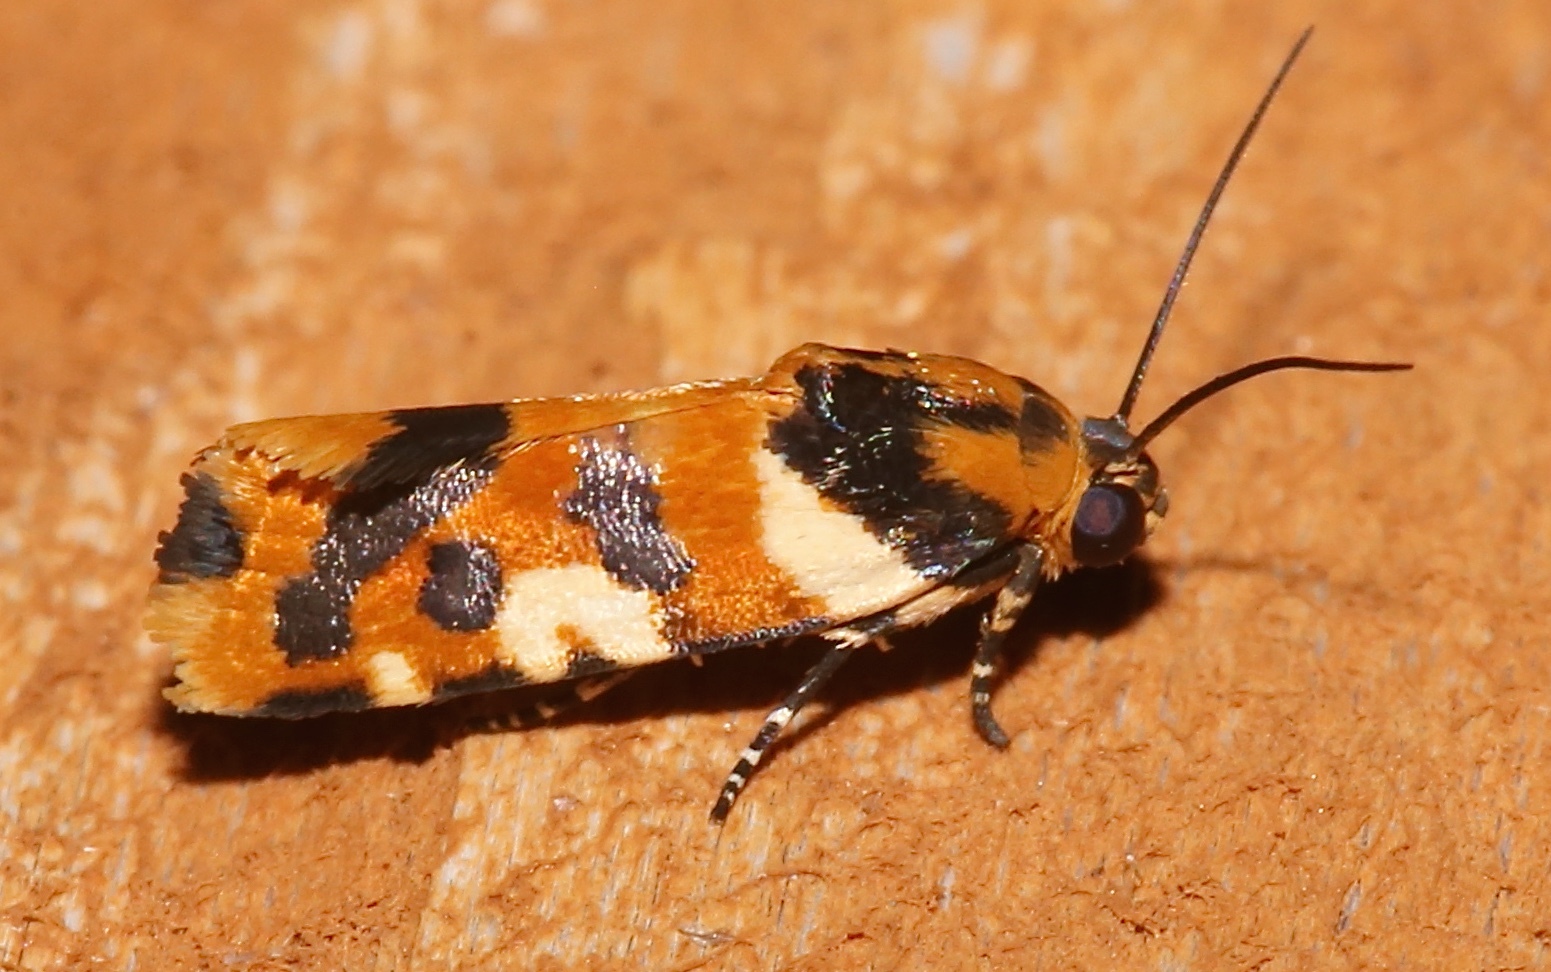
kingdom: Animalia
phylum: Arthropoda
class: Insecta
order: Lepidoptera
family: Noctuidae
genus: Acontia
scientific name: Acontia dama
